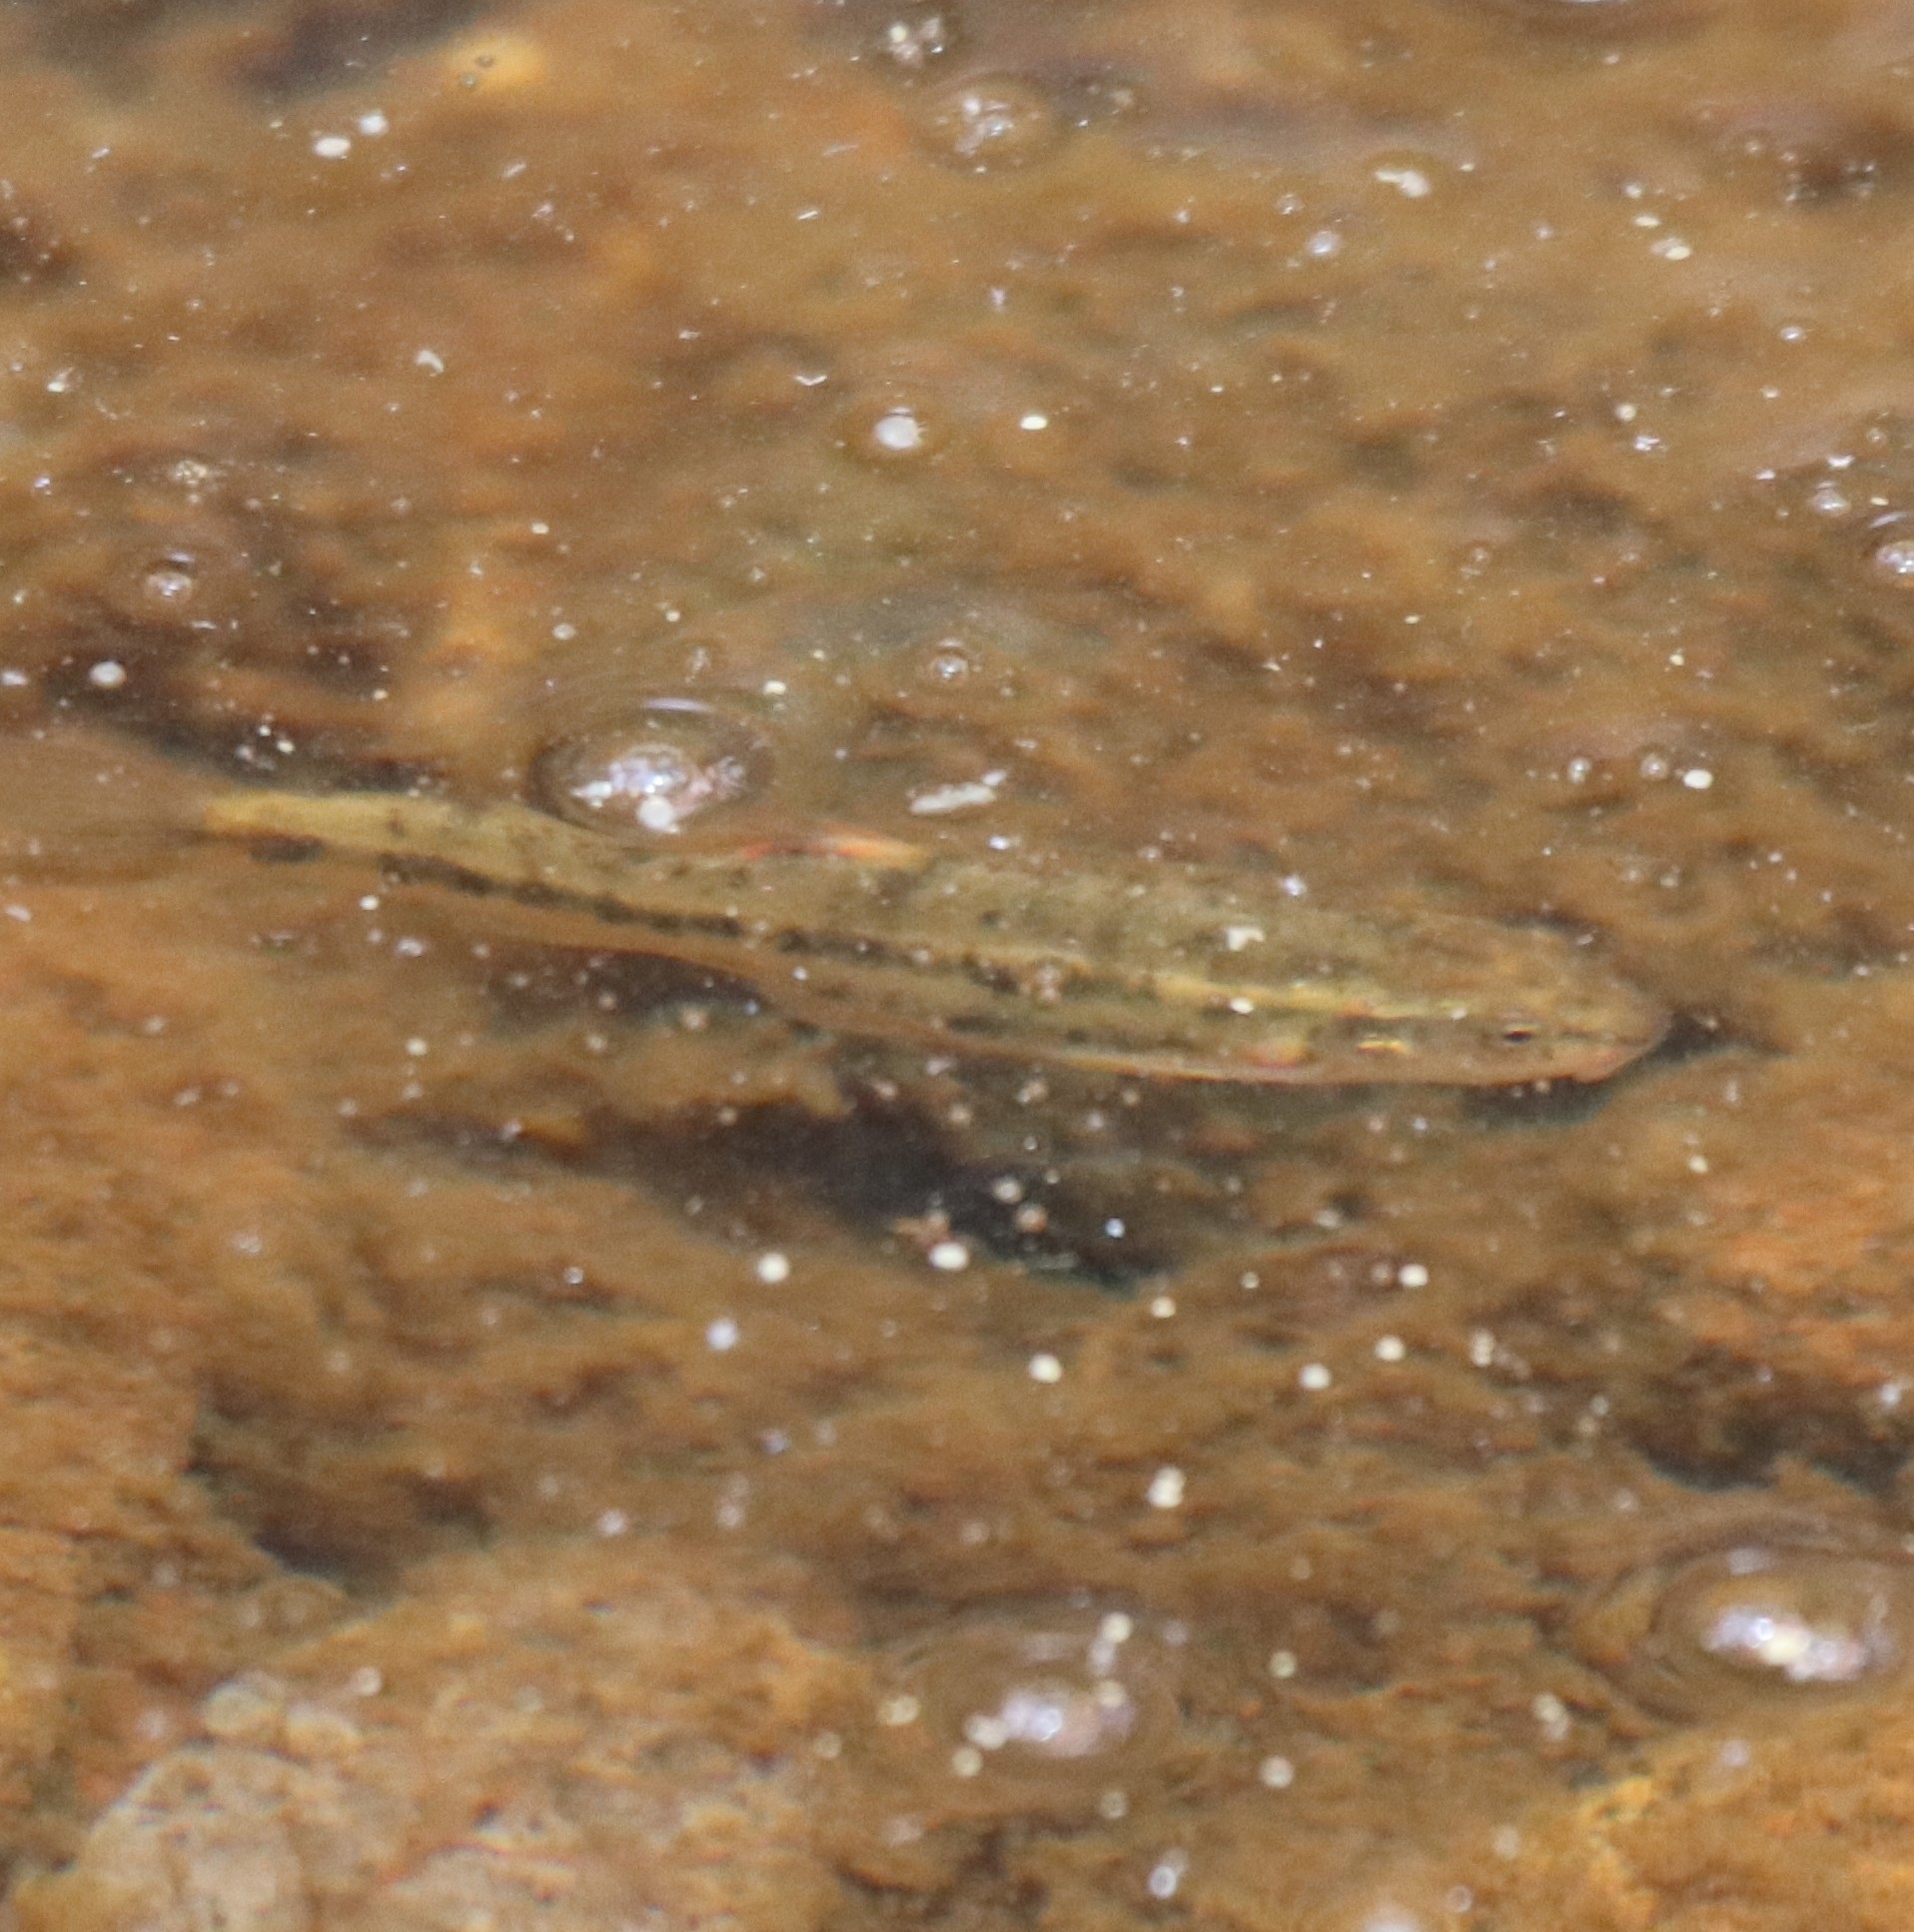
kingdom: Animalia
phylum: Chordata
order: Cypriniformes
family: Cyprinidae
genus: Rhinichthys
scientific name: Rhinichthys osculus
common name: Speckled dace
